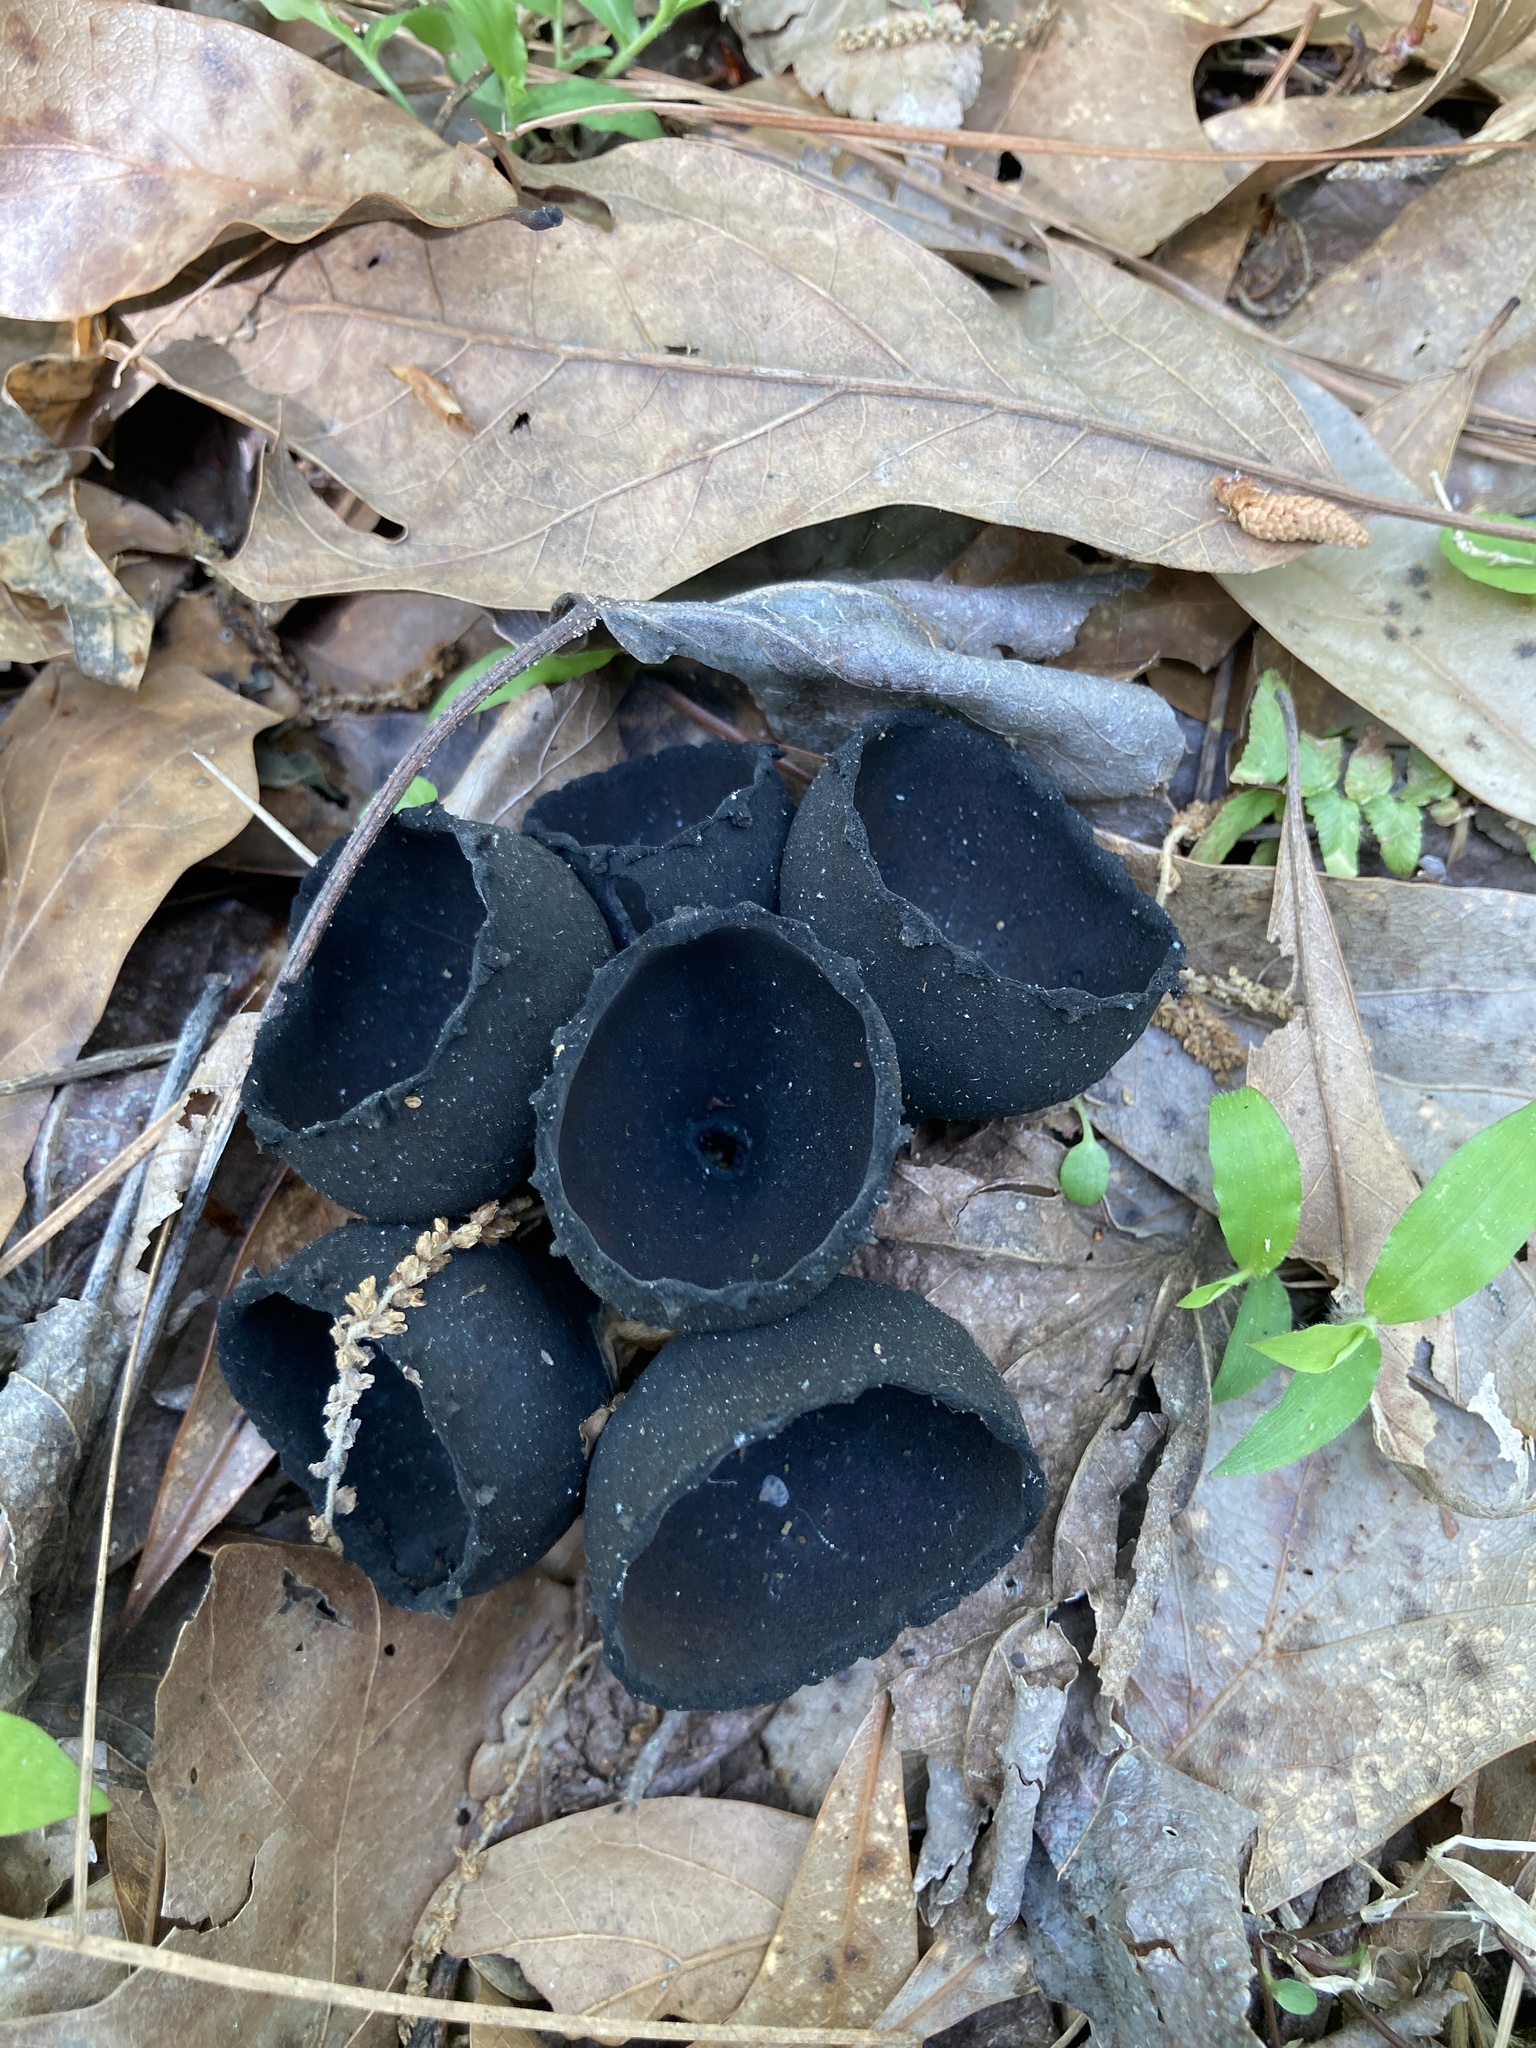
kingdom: Fungi
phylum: Ascomycota
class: Pezizomycetes
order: Pezizales
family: Sarcosomataceae
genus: Urnula
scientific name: Urnula craterium
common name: Devil's urn
